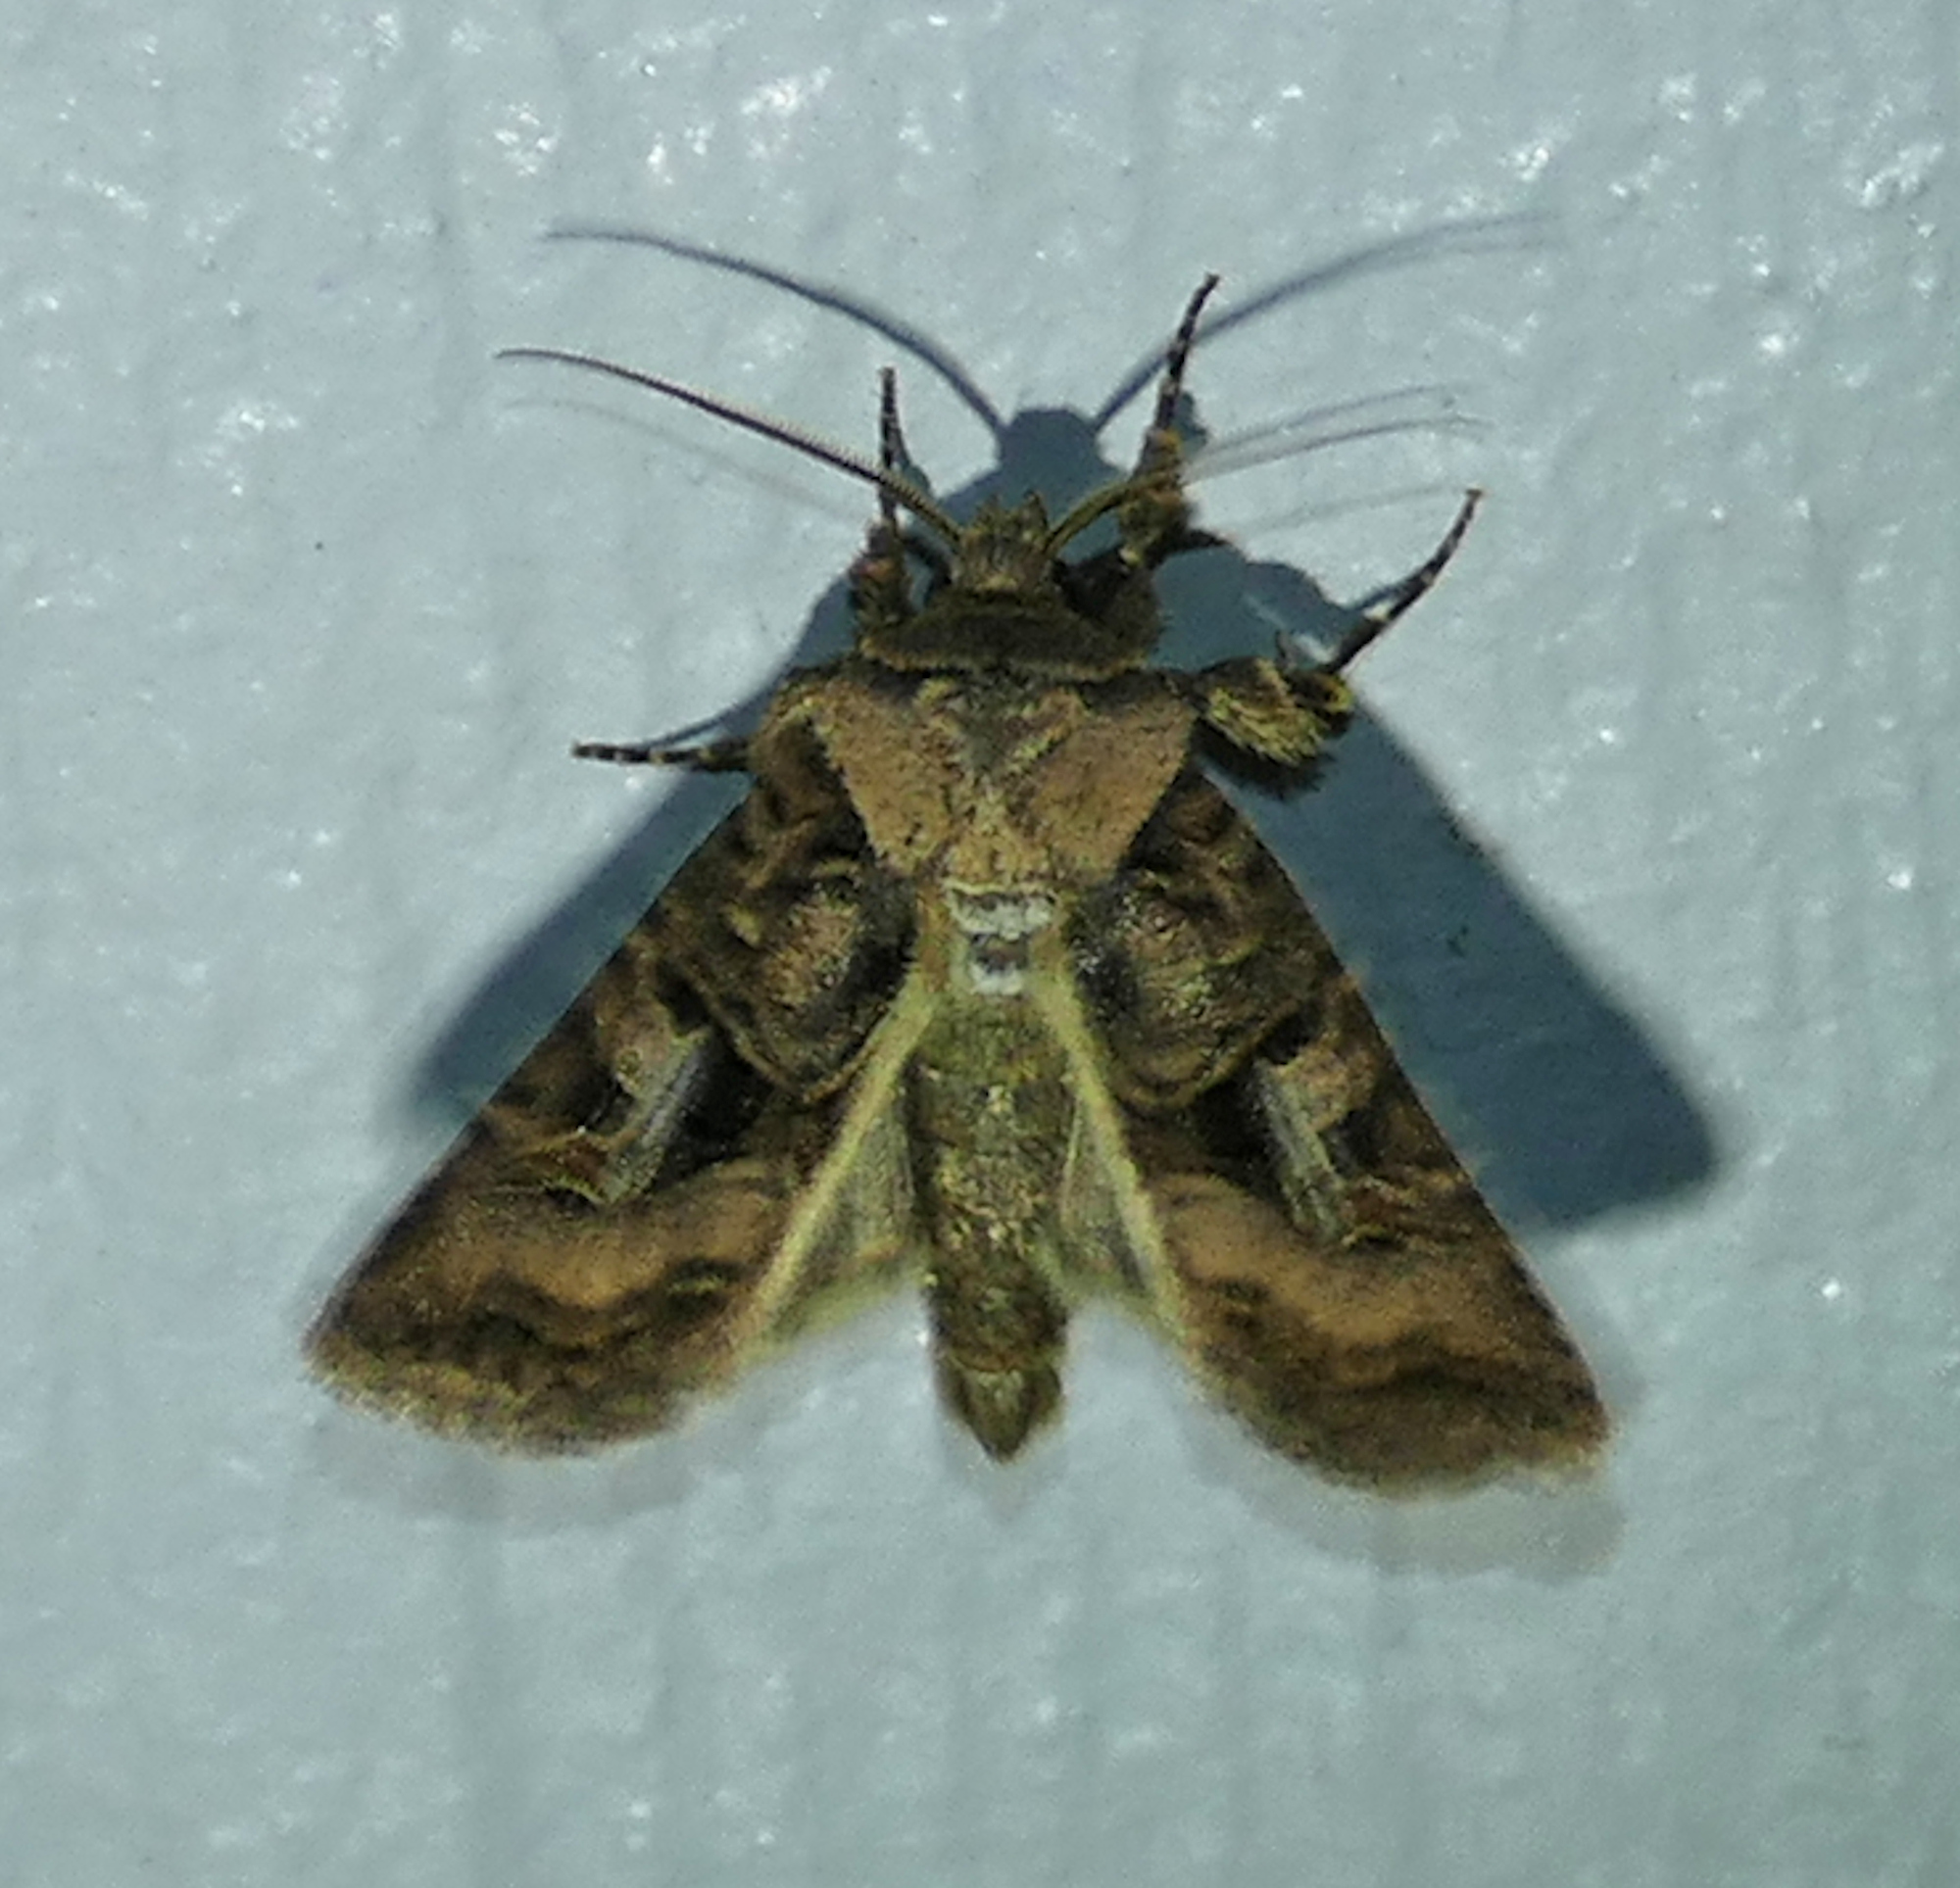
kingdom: Animalia
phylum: Arthropoda
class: Insecta
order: Lepidoptera
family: Noctuidae
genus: Hyperepia
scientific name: Hyperepia jugifera
